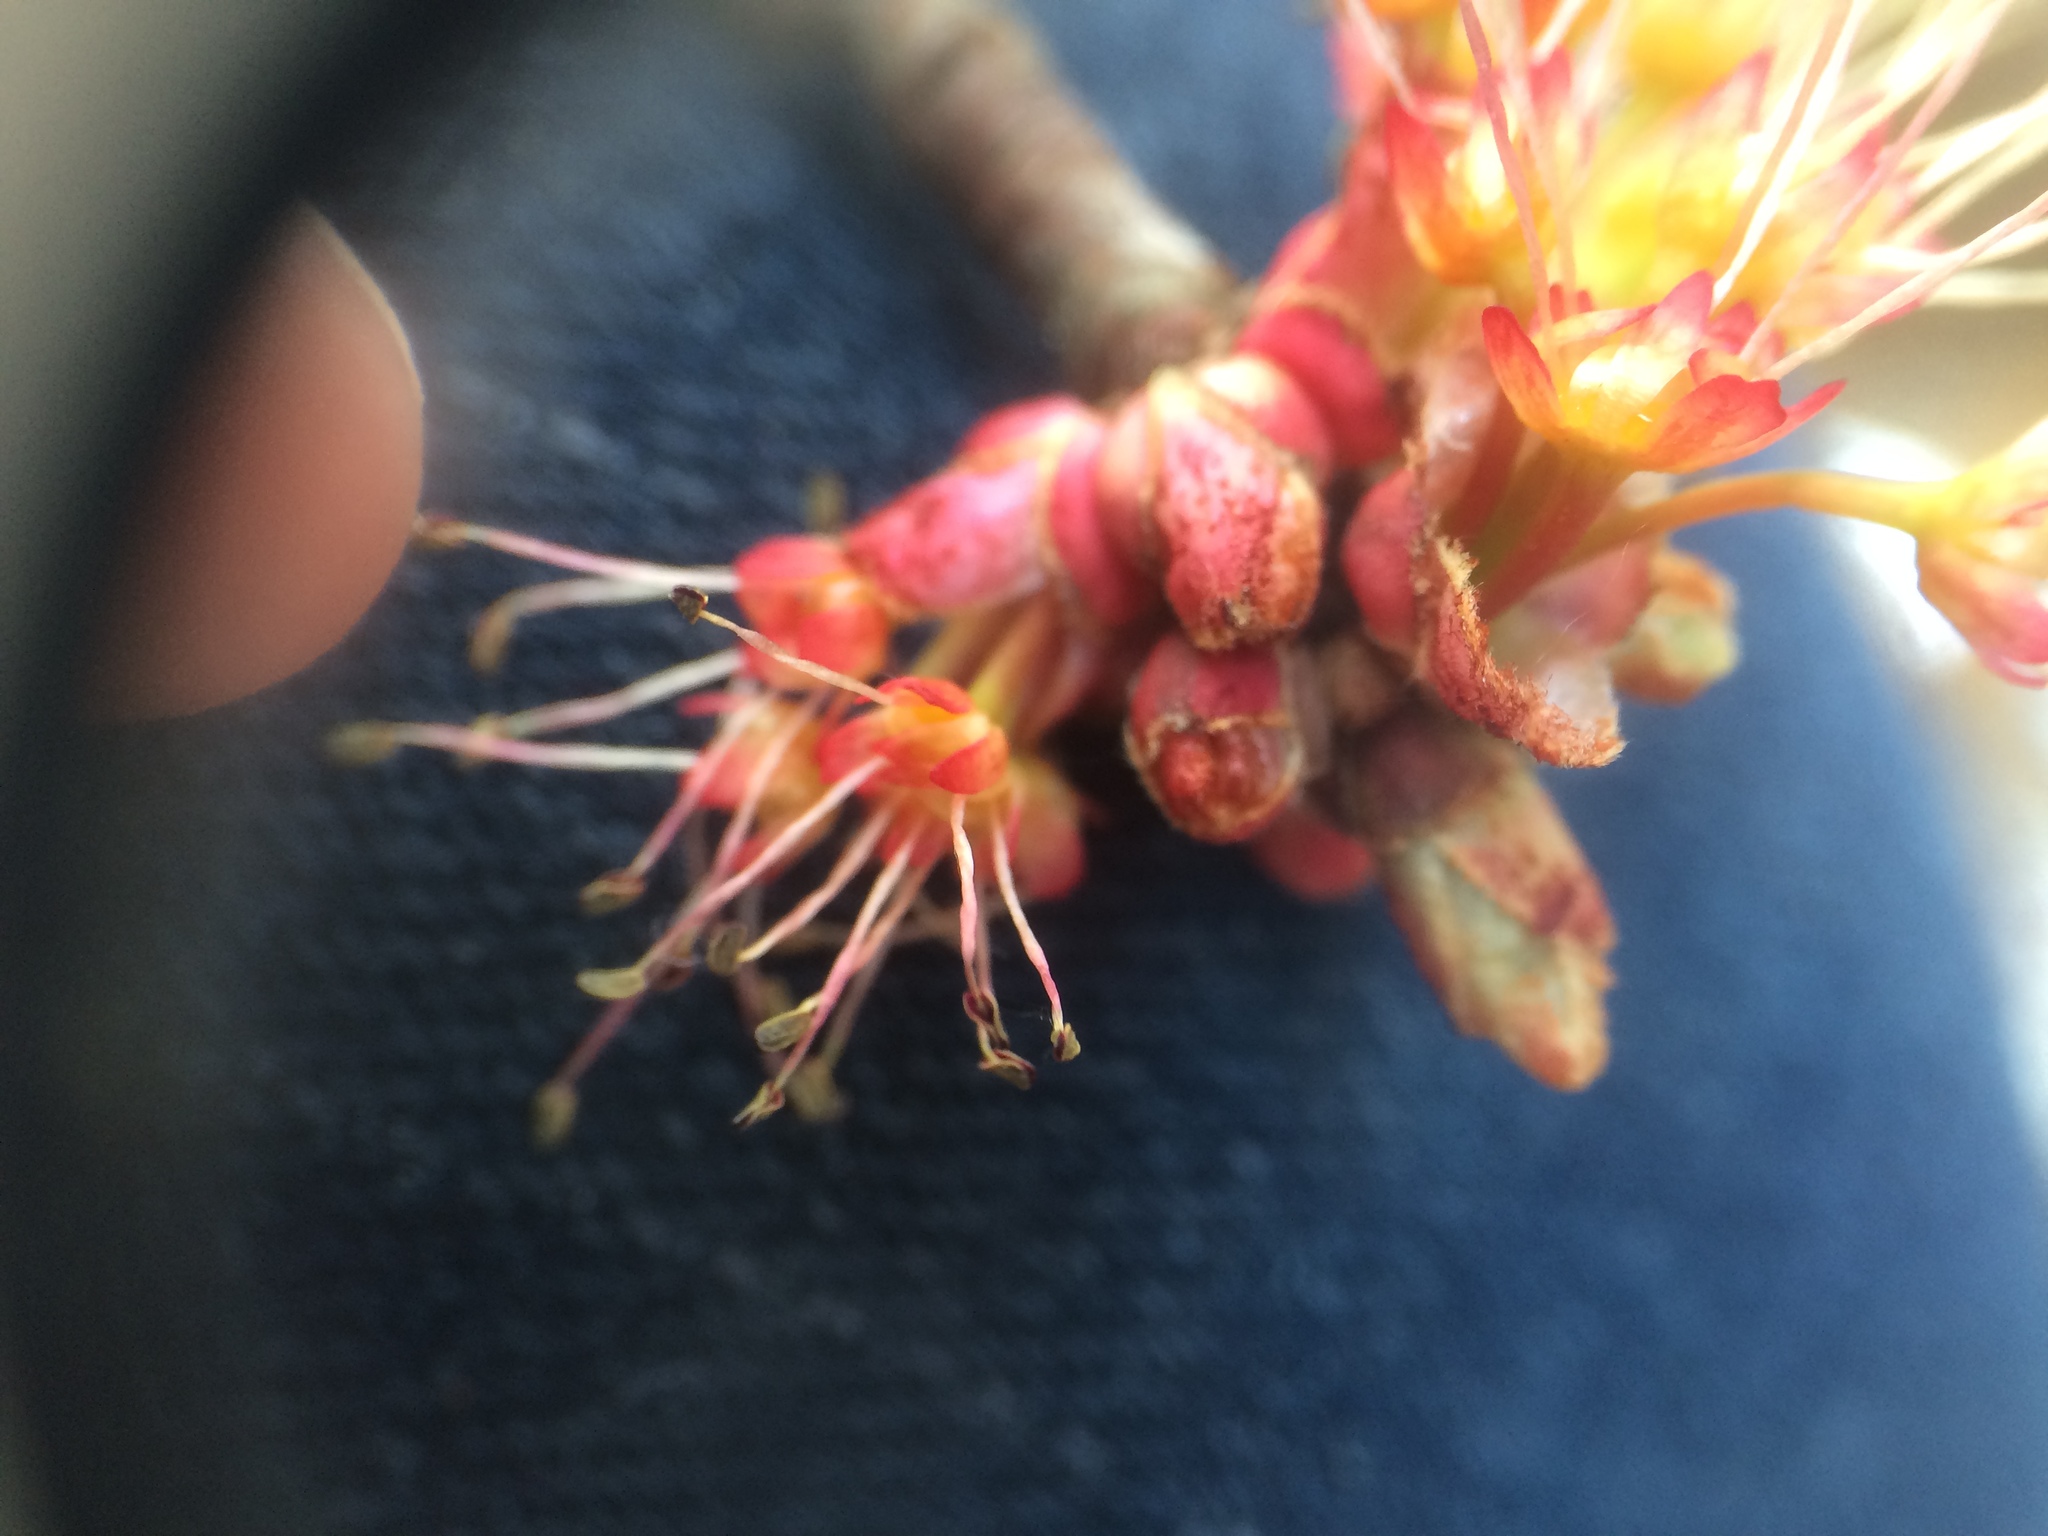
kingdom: Plantae
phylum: Tracheophyta
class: Magnoliopsida
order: Sapindales
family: Sapindaceae
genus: Acer
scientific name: Acer rubrum
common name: Red maple
